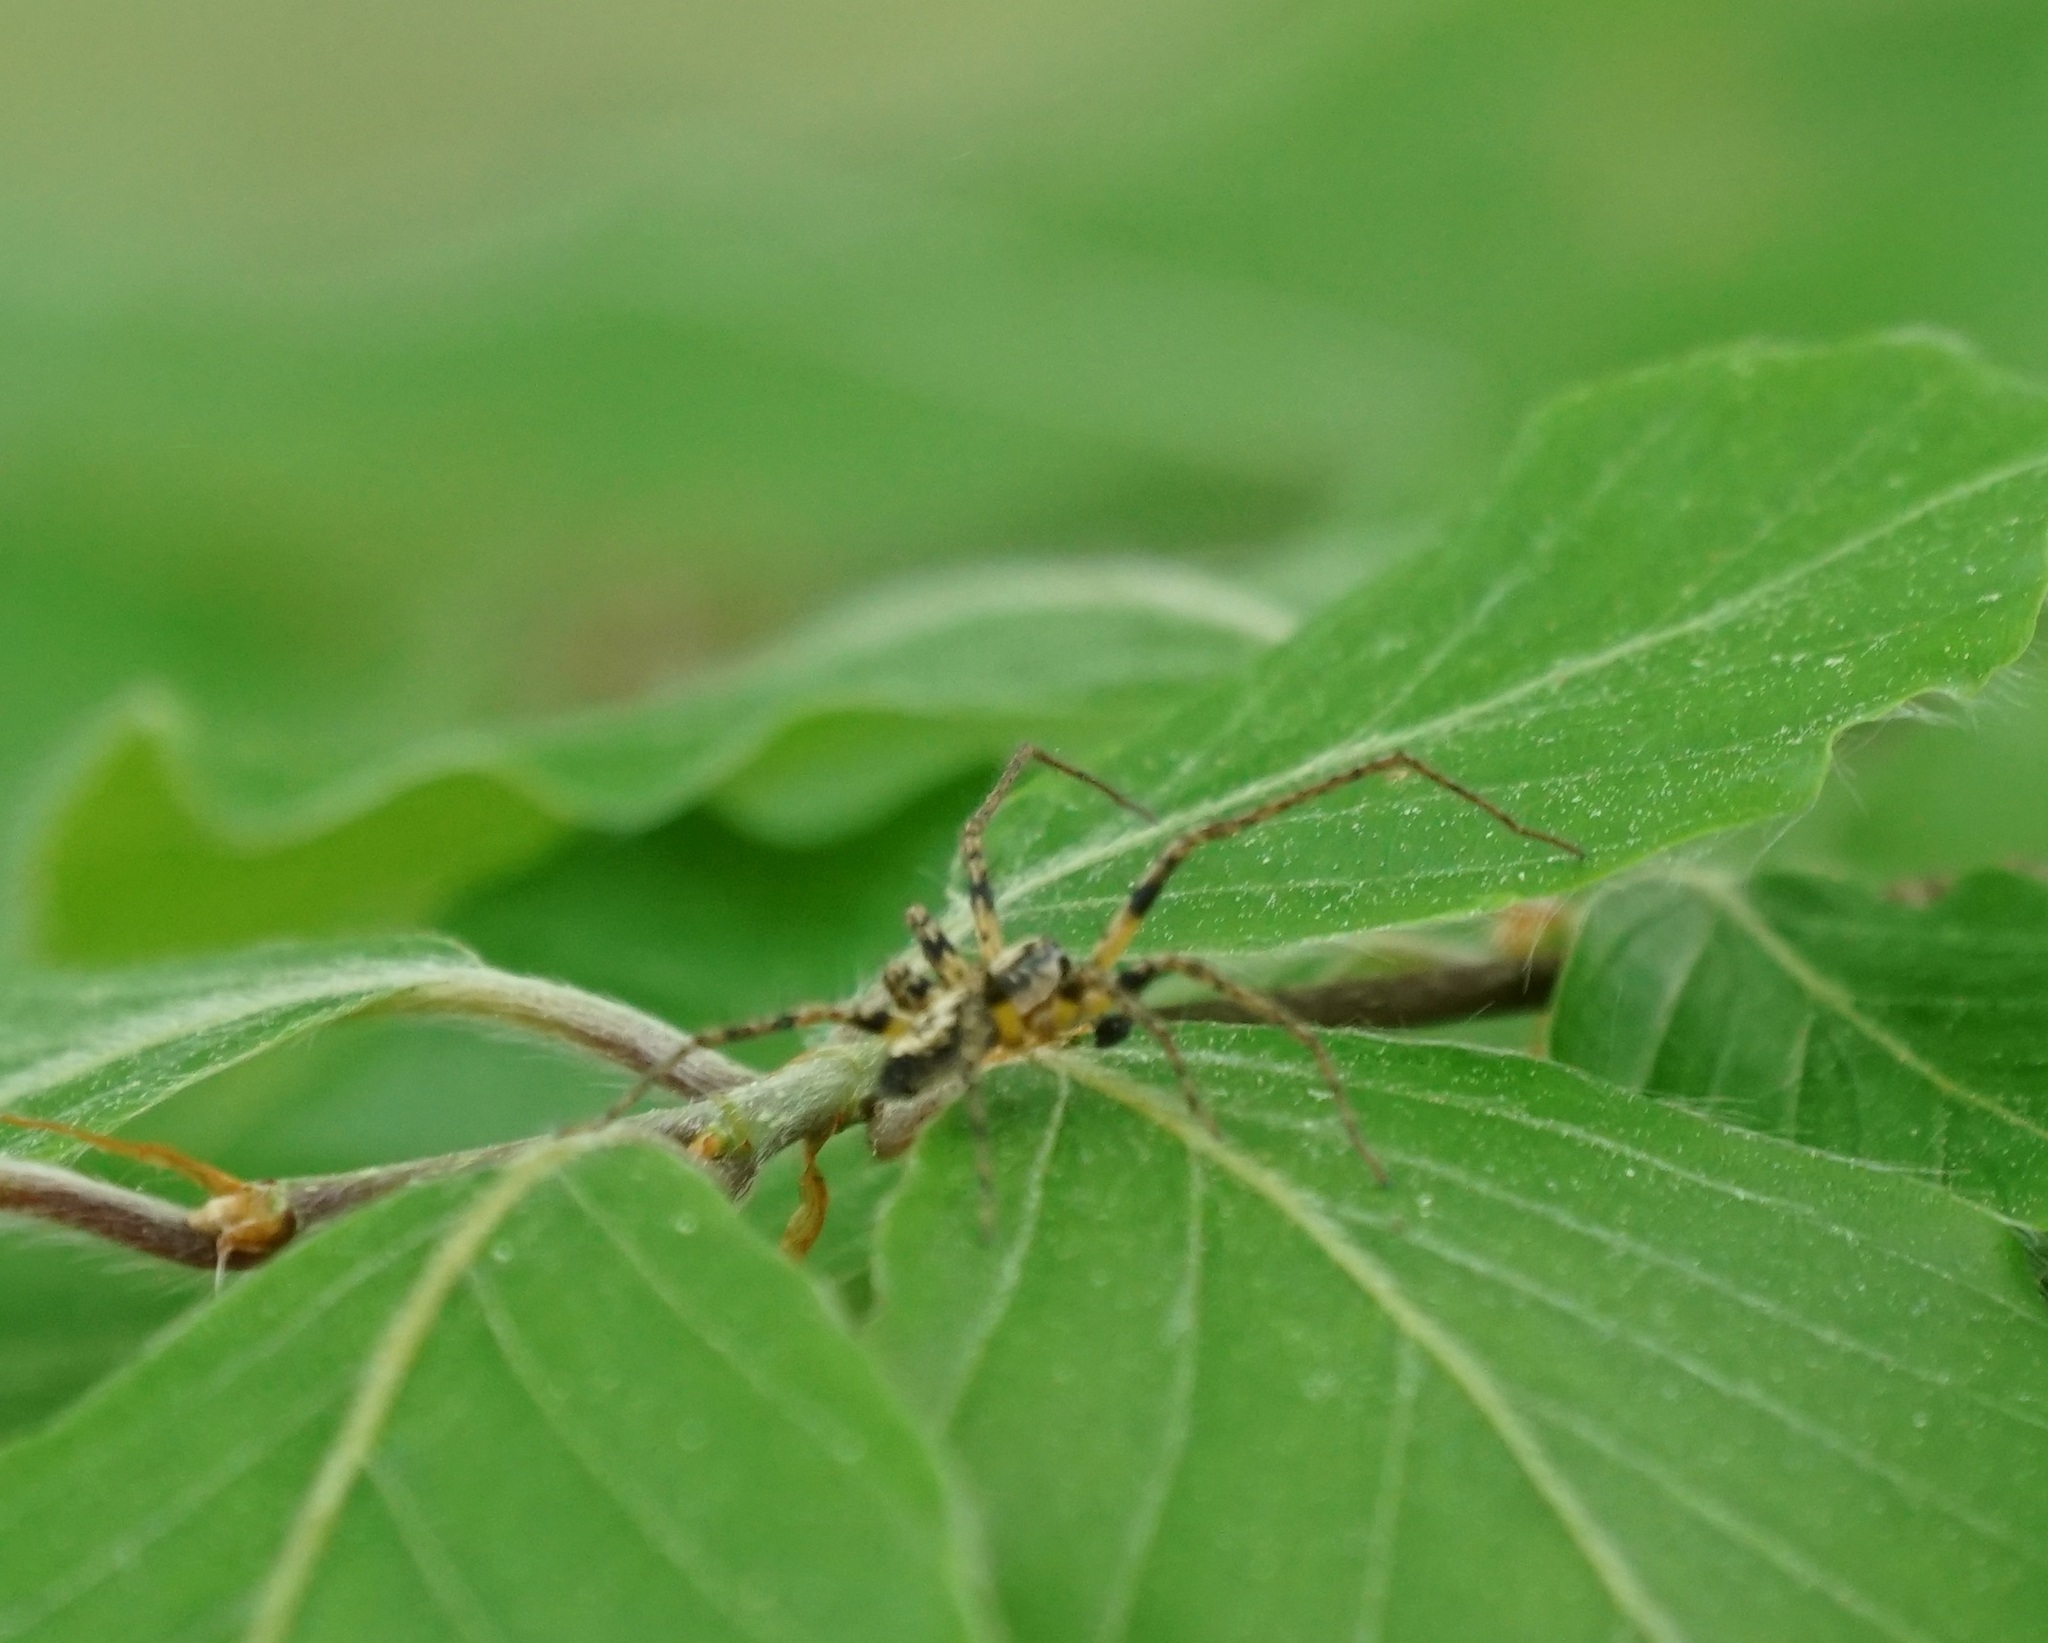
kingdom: Animalia
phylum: Arthropoda
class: Arachnida
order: Araneae
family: Anyphaenidae
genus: Anyphaena
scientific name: Anyphaena accentuata
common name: Buzzing spider
